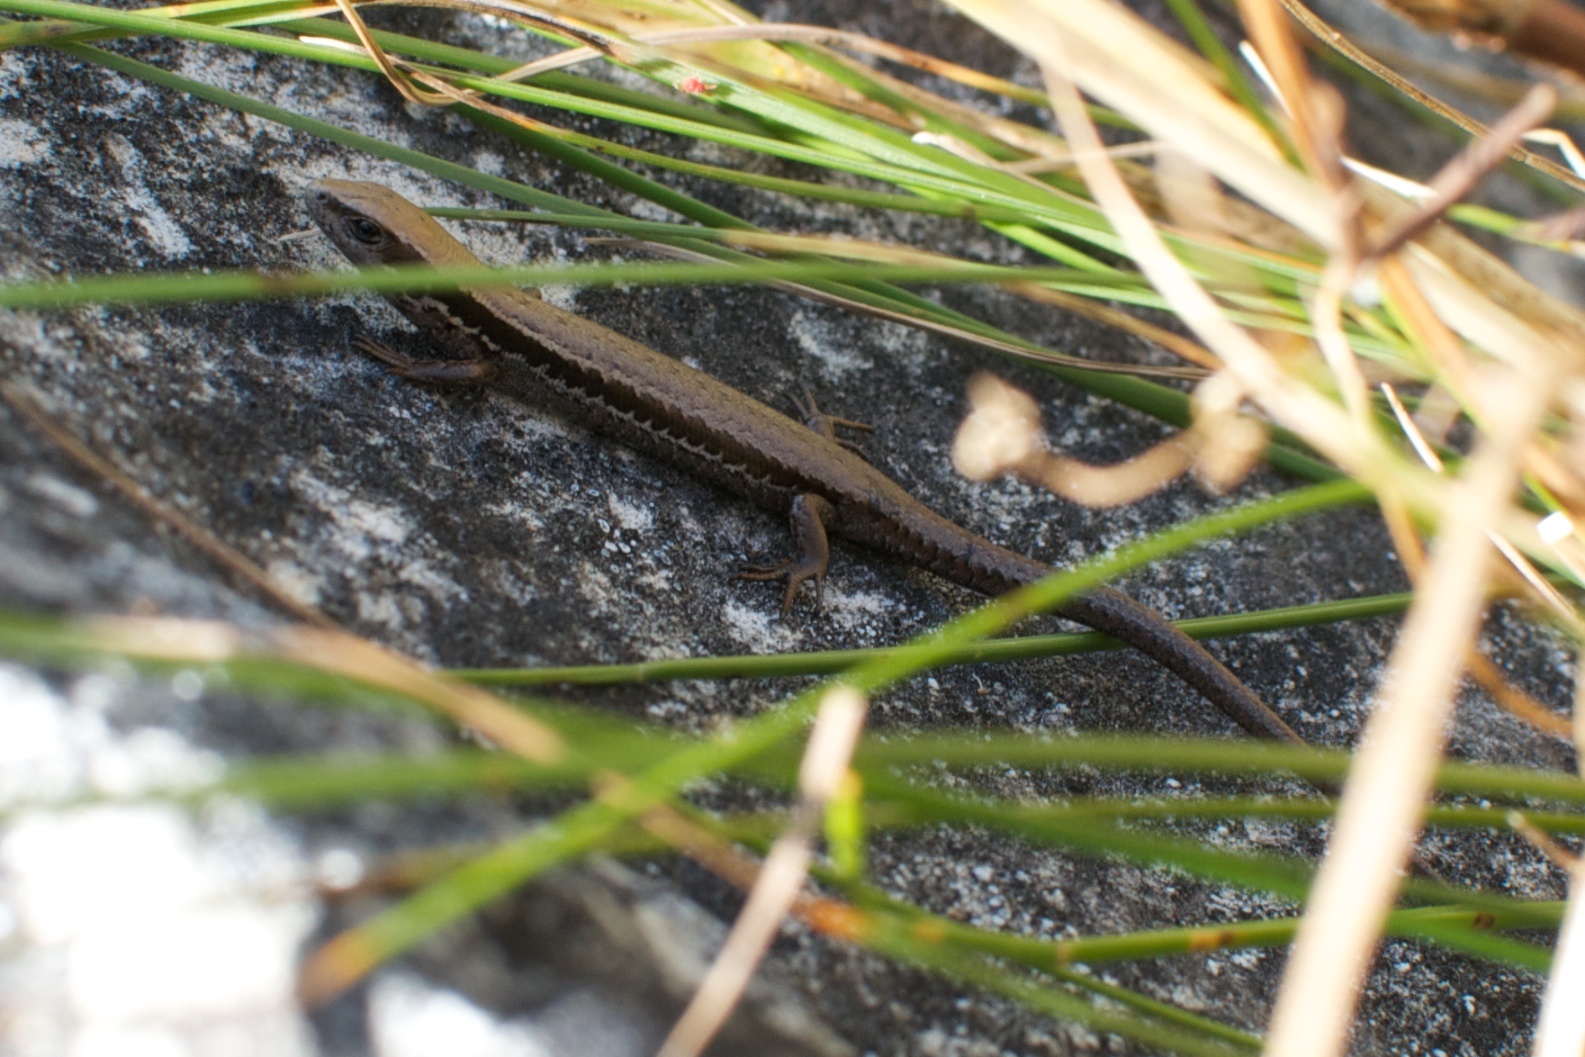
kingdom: Animalia
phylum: Chordata
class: Squamata
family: Scincidae
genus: Oligosoma
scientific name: Oligosoma maccanni
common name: Mccann’s skink
